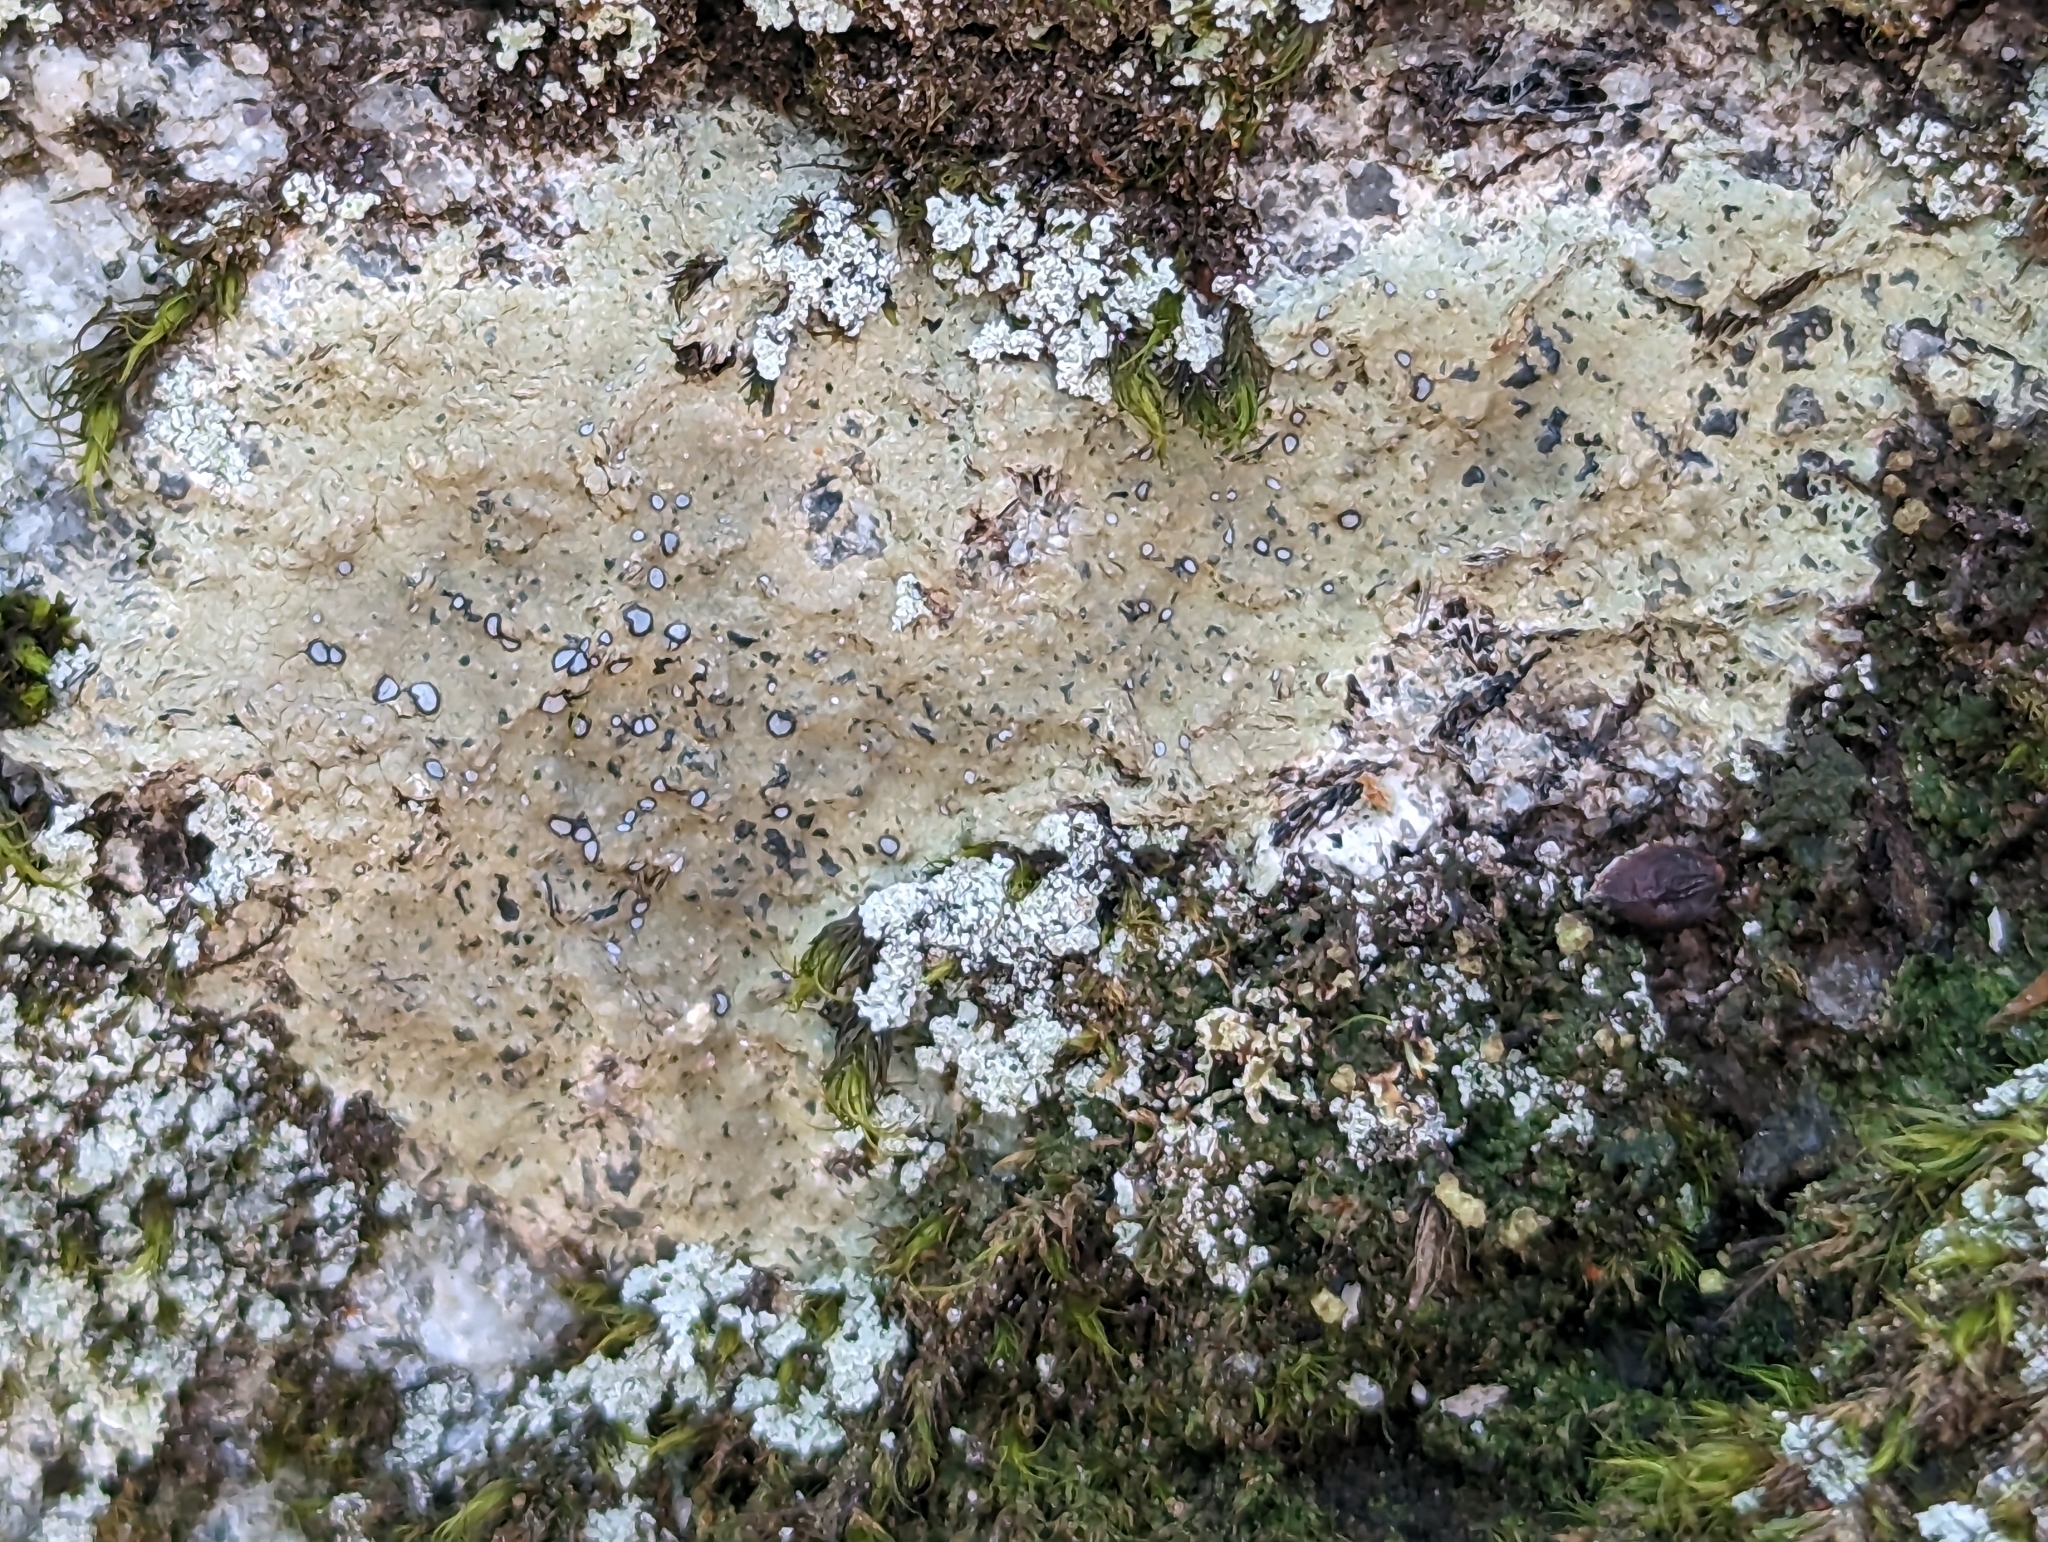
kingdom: Fungi
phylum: Ascomycota
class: Lecanoromycetes
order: Lecideales
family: Lecideaceae
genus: Porpidia
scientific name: Porpidia albocaerulescens
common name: Smokey-eyed boulder lichen
